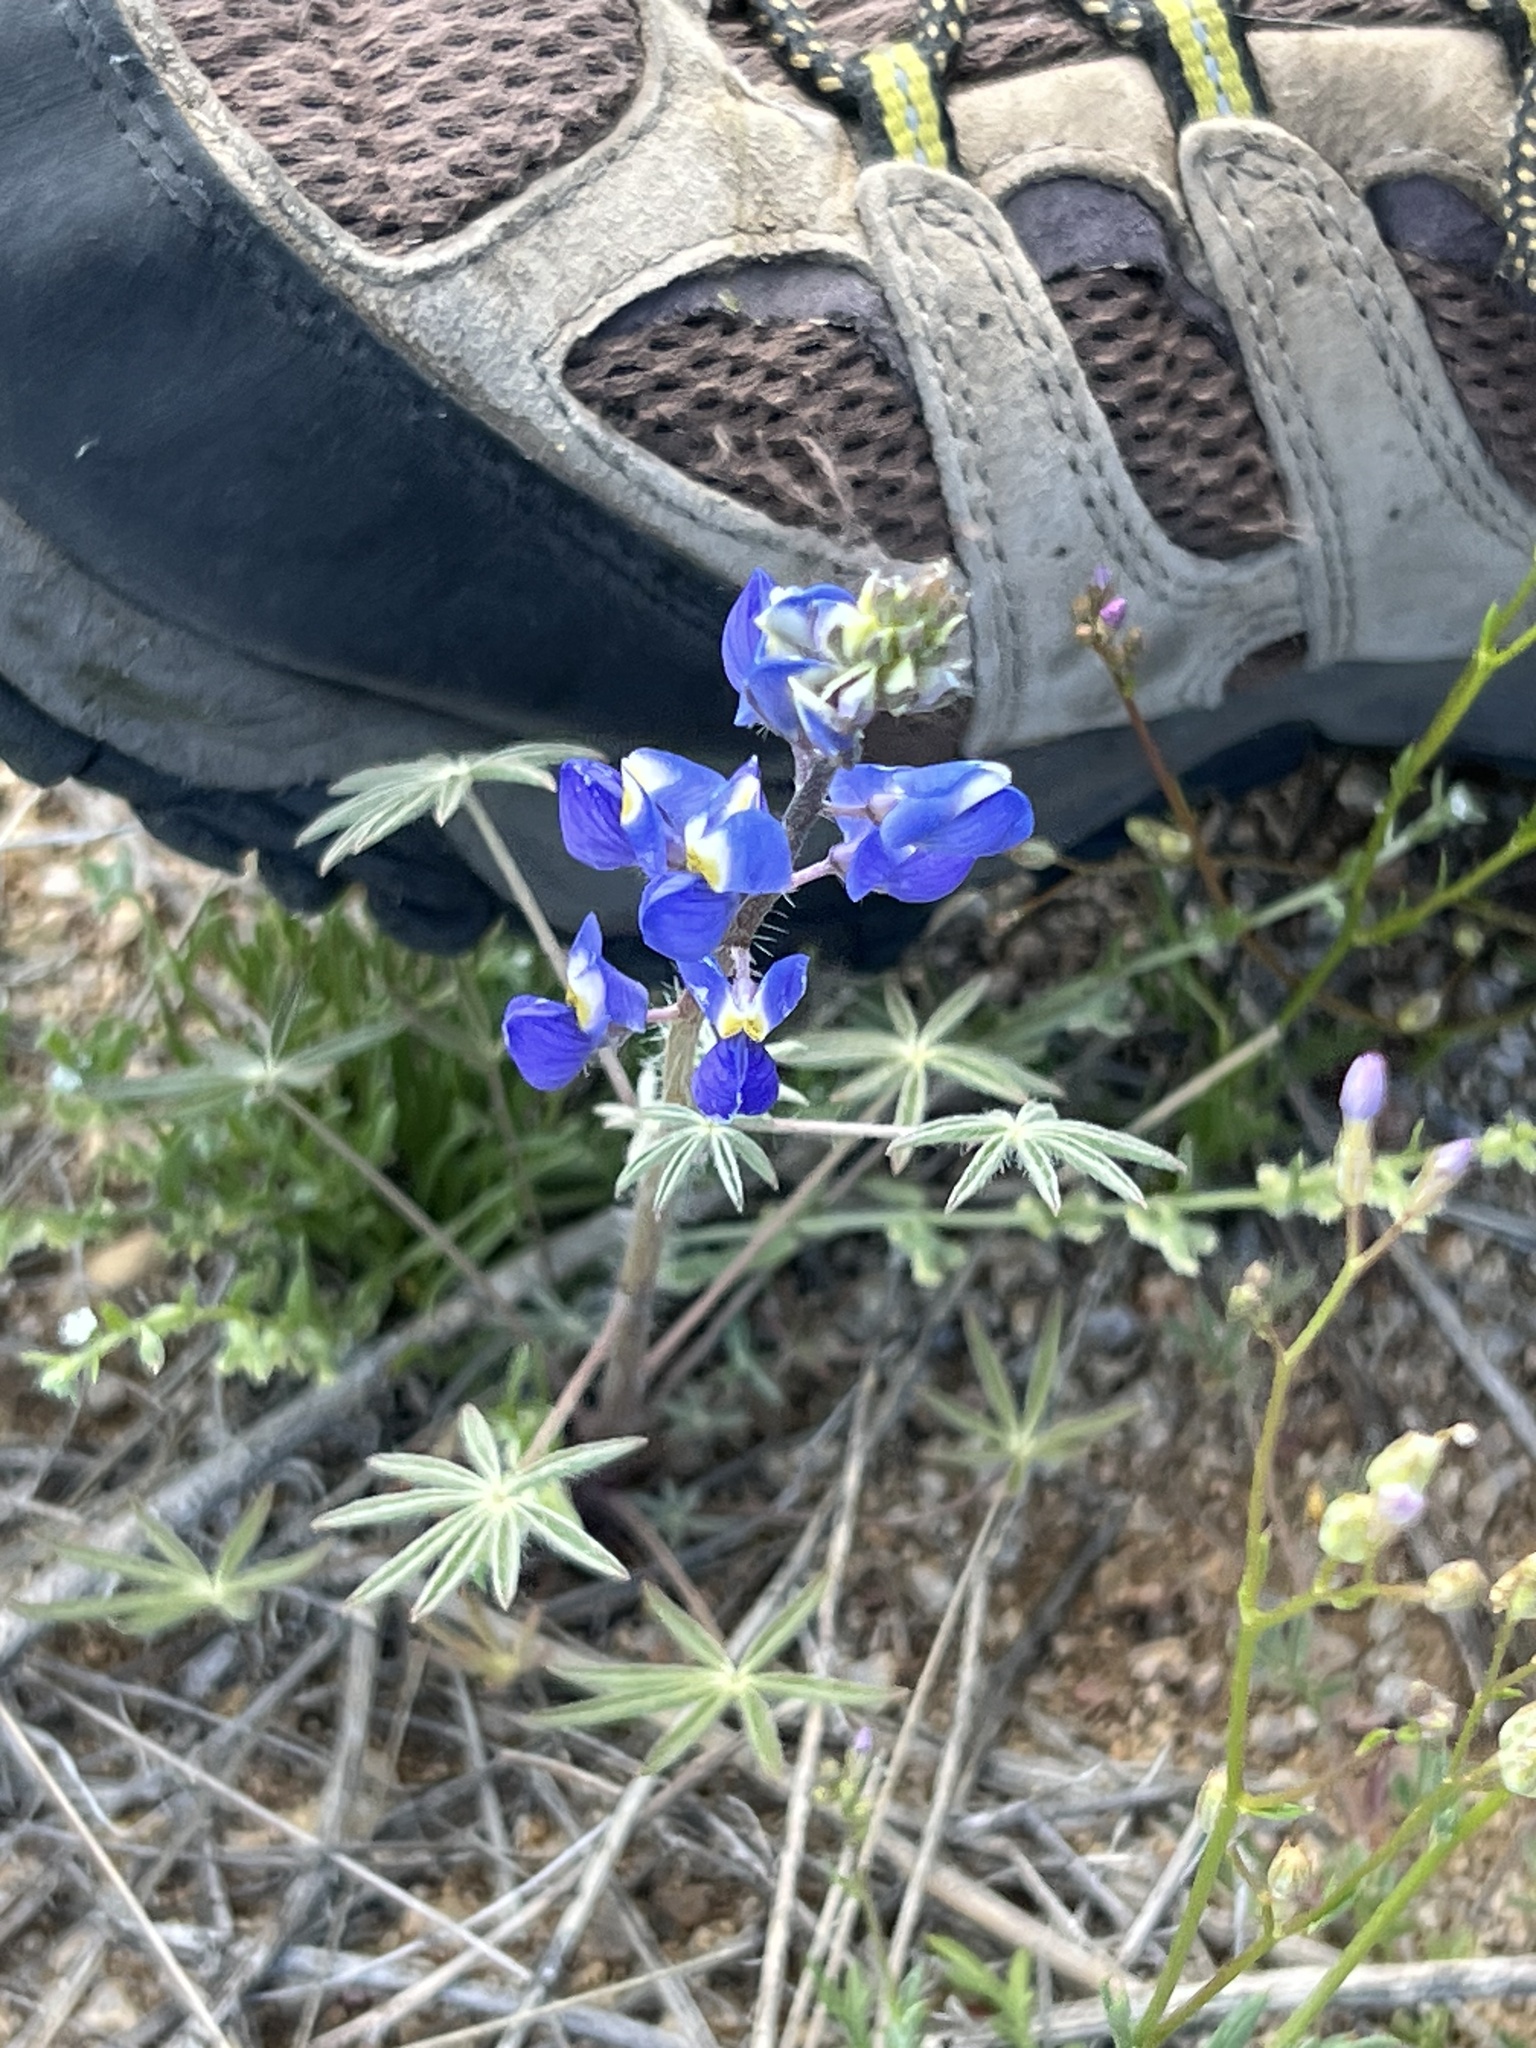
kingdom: Plantae
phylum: Tracheophyta
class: Magnoliopsida
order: Fabales
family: Fabaceae
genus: Lupinus
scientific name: Lupinus sparsiflorus
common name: Coulter's lupine
